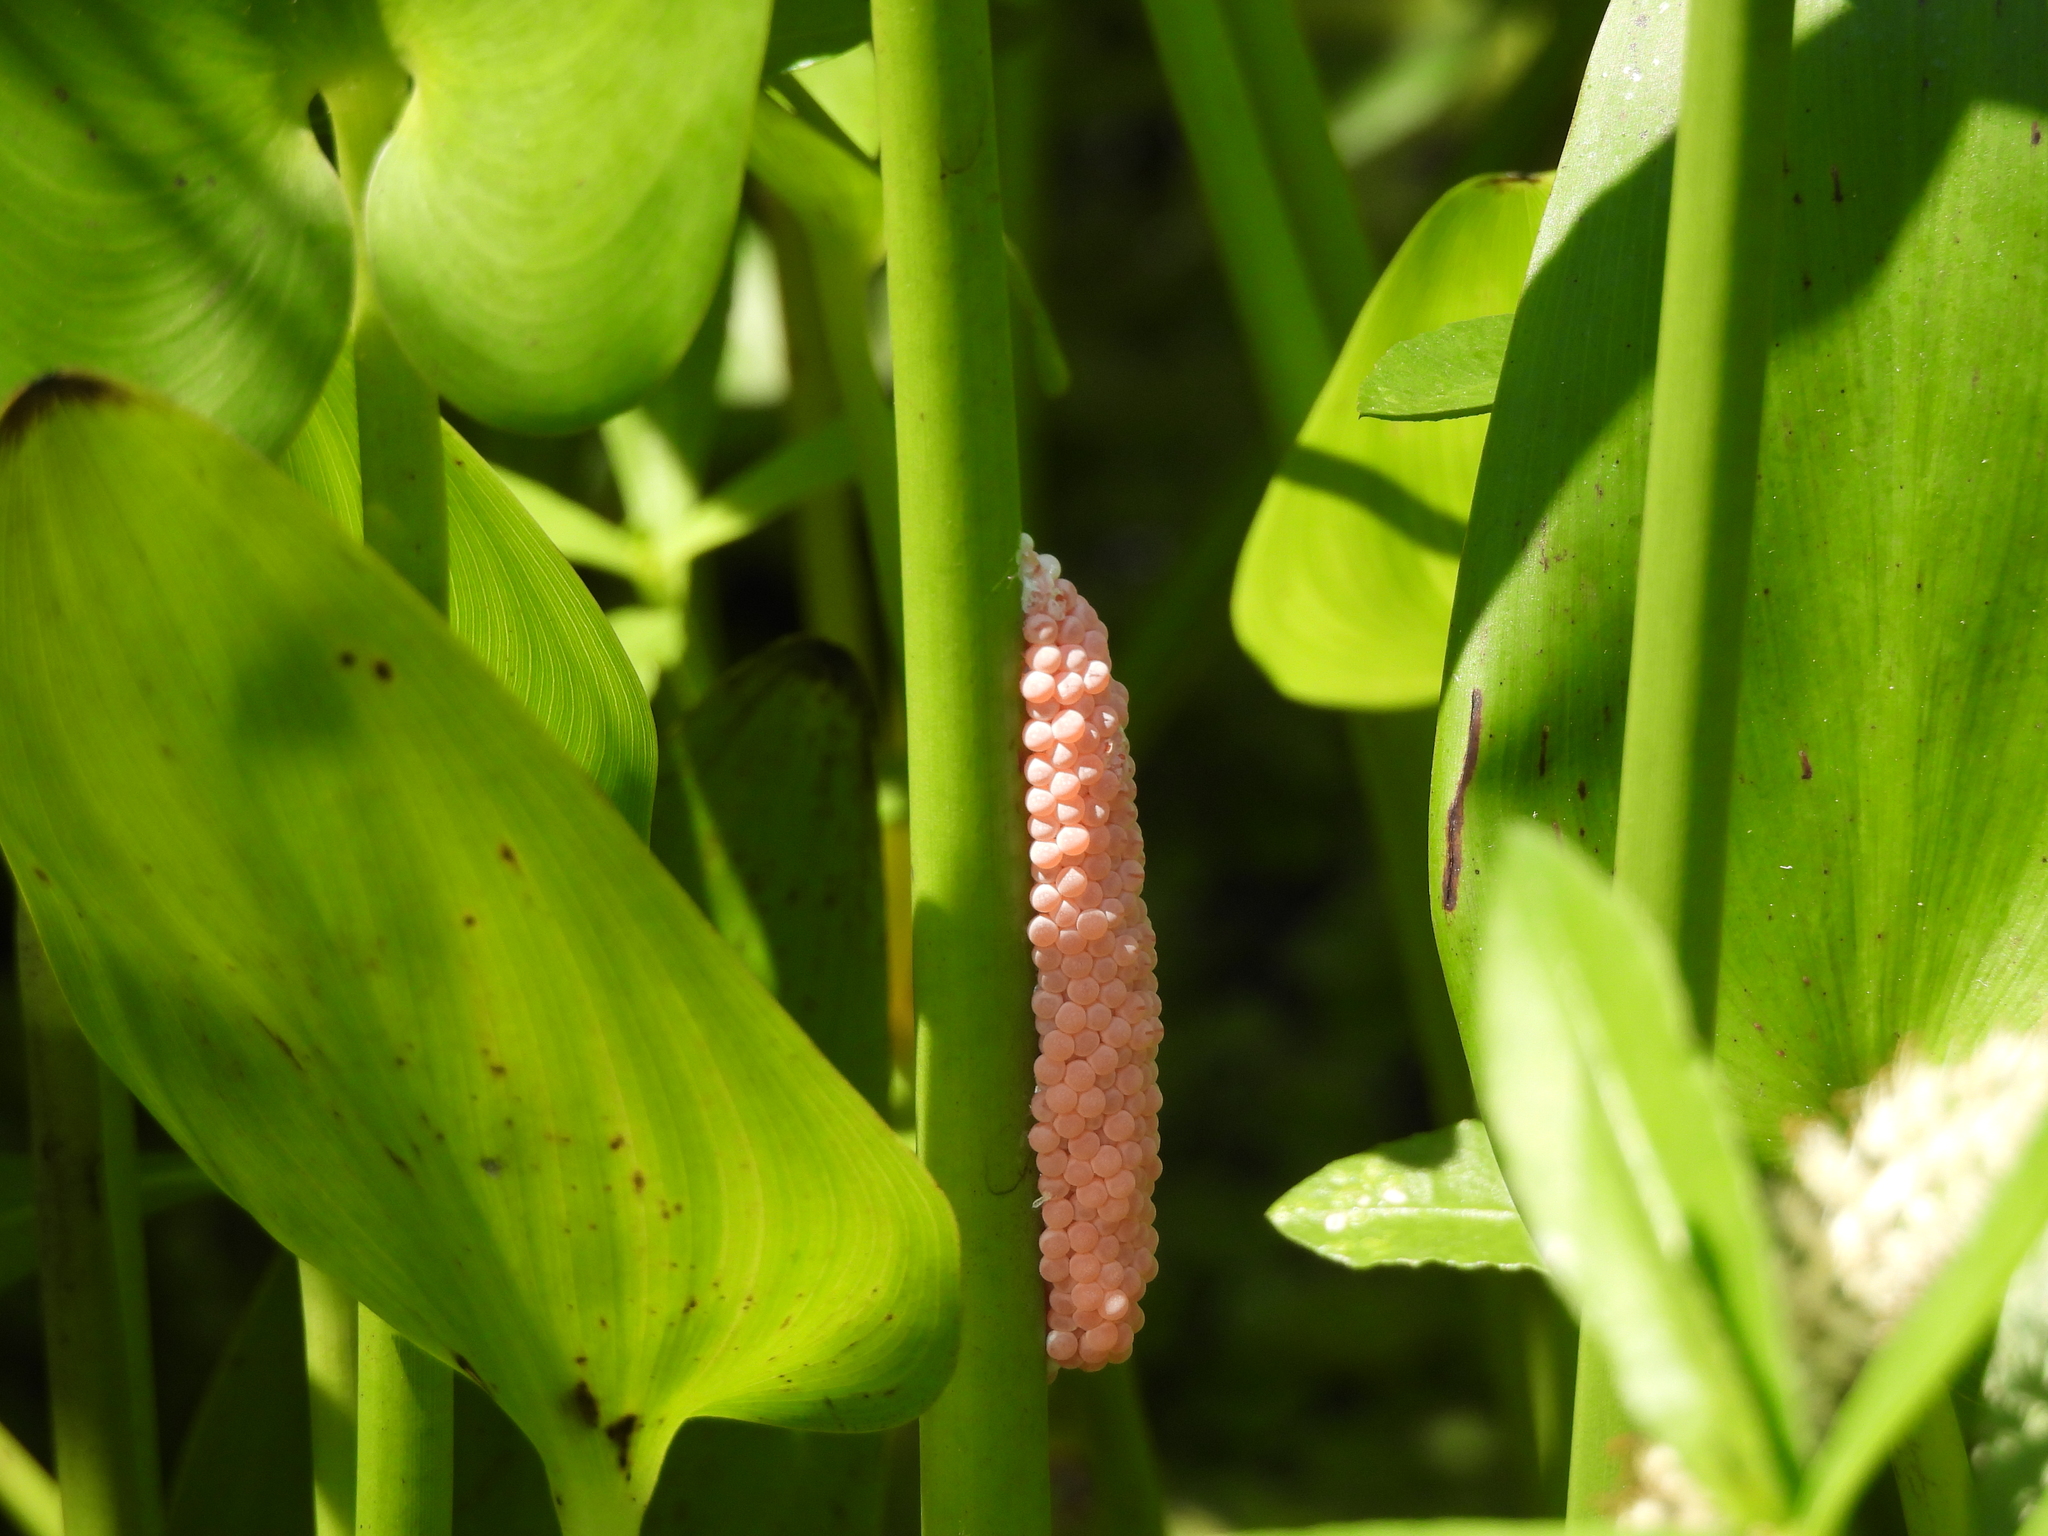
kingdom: Animalia
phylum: Mollusca
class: Gastropoda
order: Architaenioglossa
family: Ampullariidae
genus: Pomacea
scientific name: Pomacea maculata
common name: Giant applesnail
